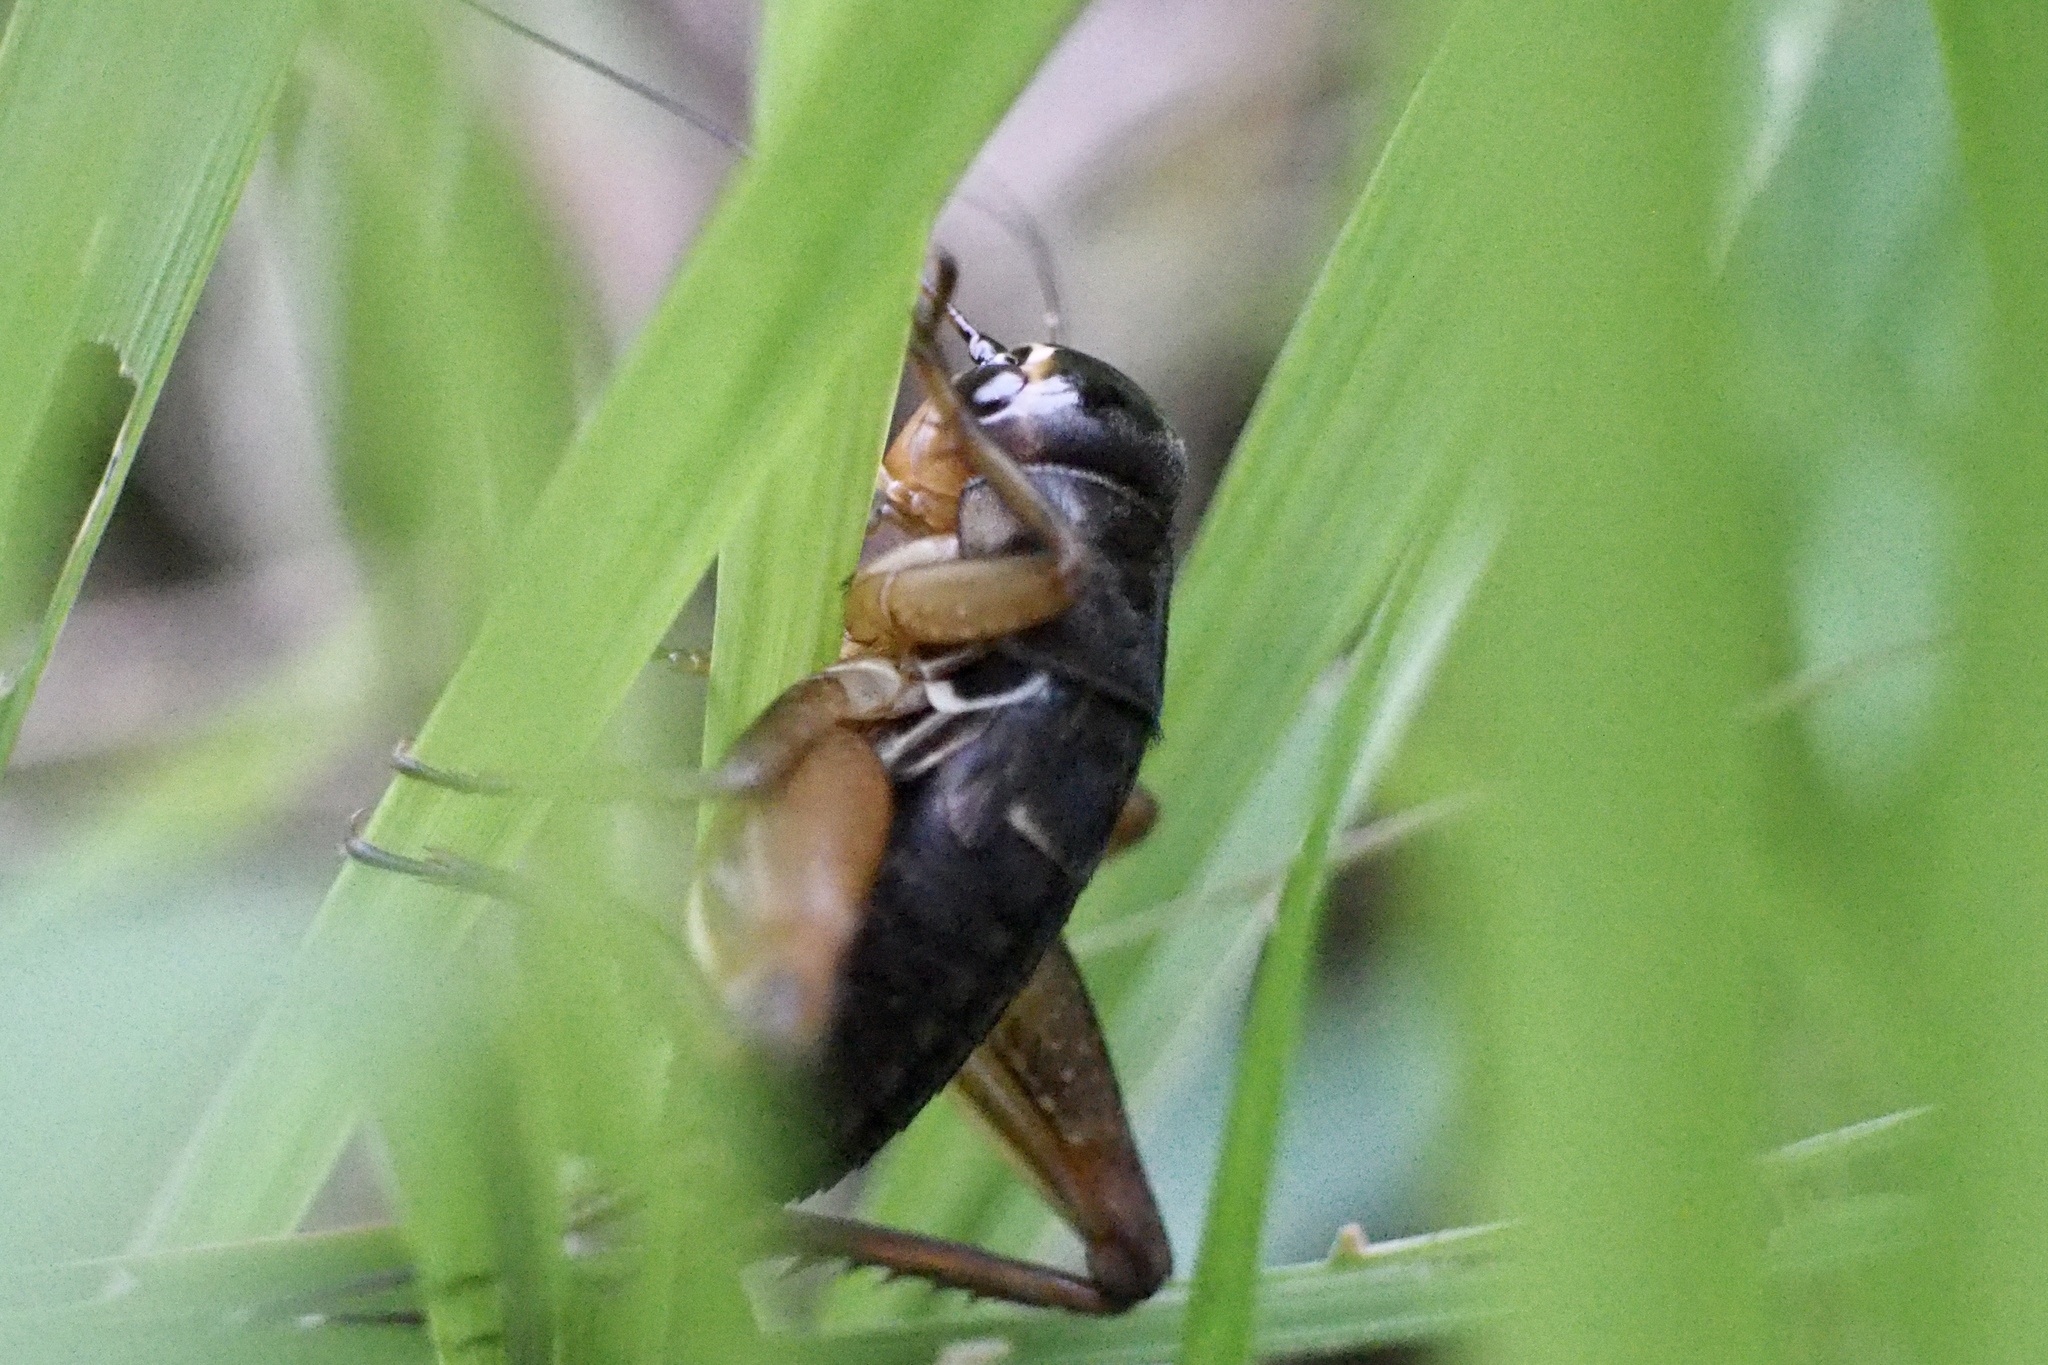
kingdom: Animalia
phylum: Arthropoda
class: Insecta
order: Orthoptera
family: Gryllidae
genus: Teleogryllus
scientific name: Teleogryllus emma
